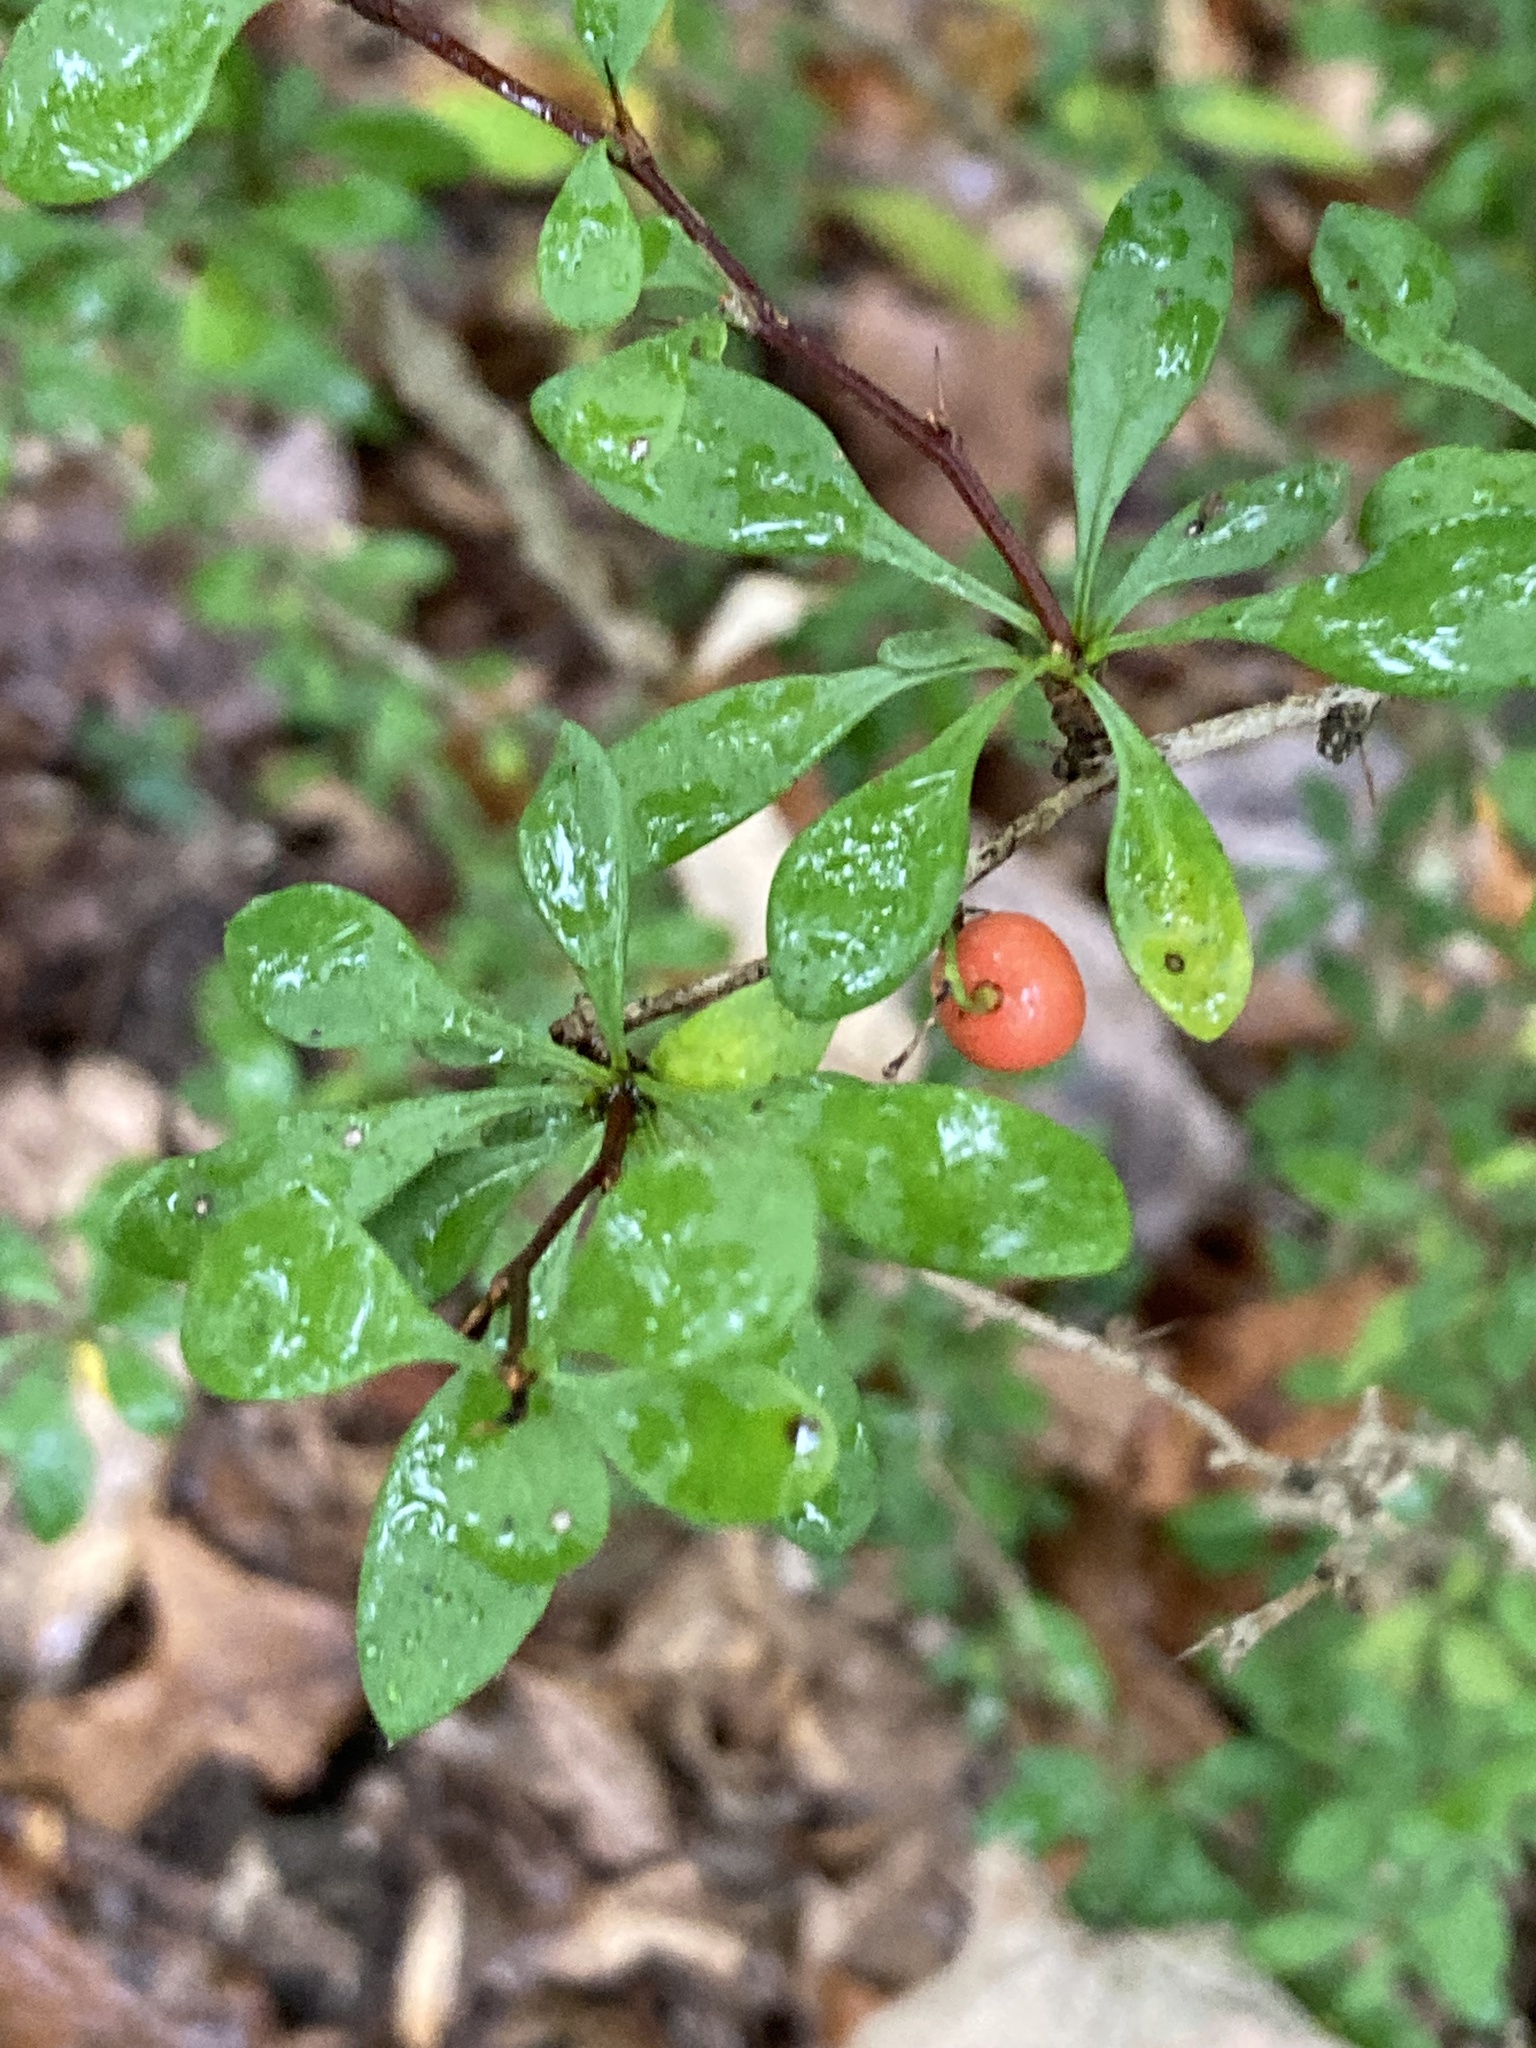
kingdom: Plantae
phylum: Tracheophyta
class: Magnoliopsida
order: Ranunculales
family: Berberidaceae
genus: Berberis
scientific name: Berberis thunbergii
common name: Japanese barberry
